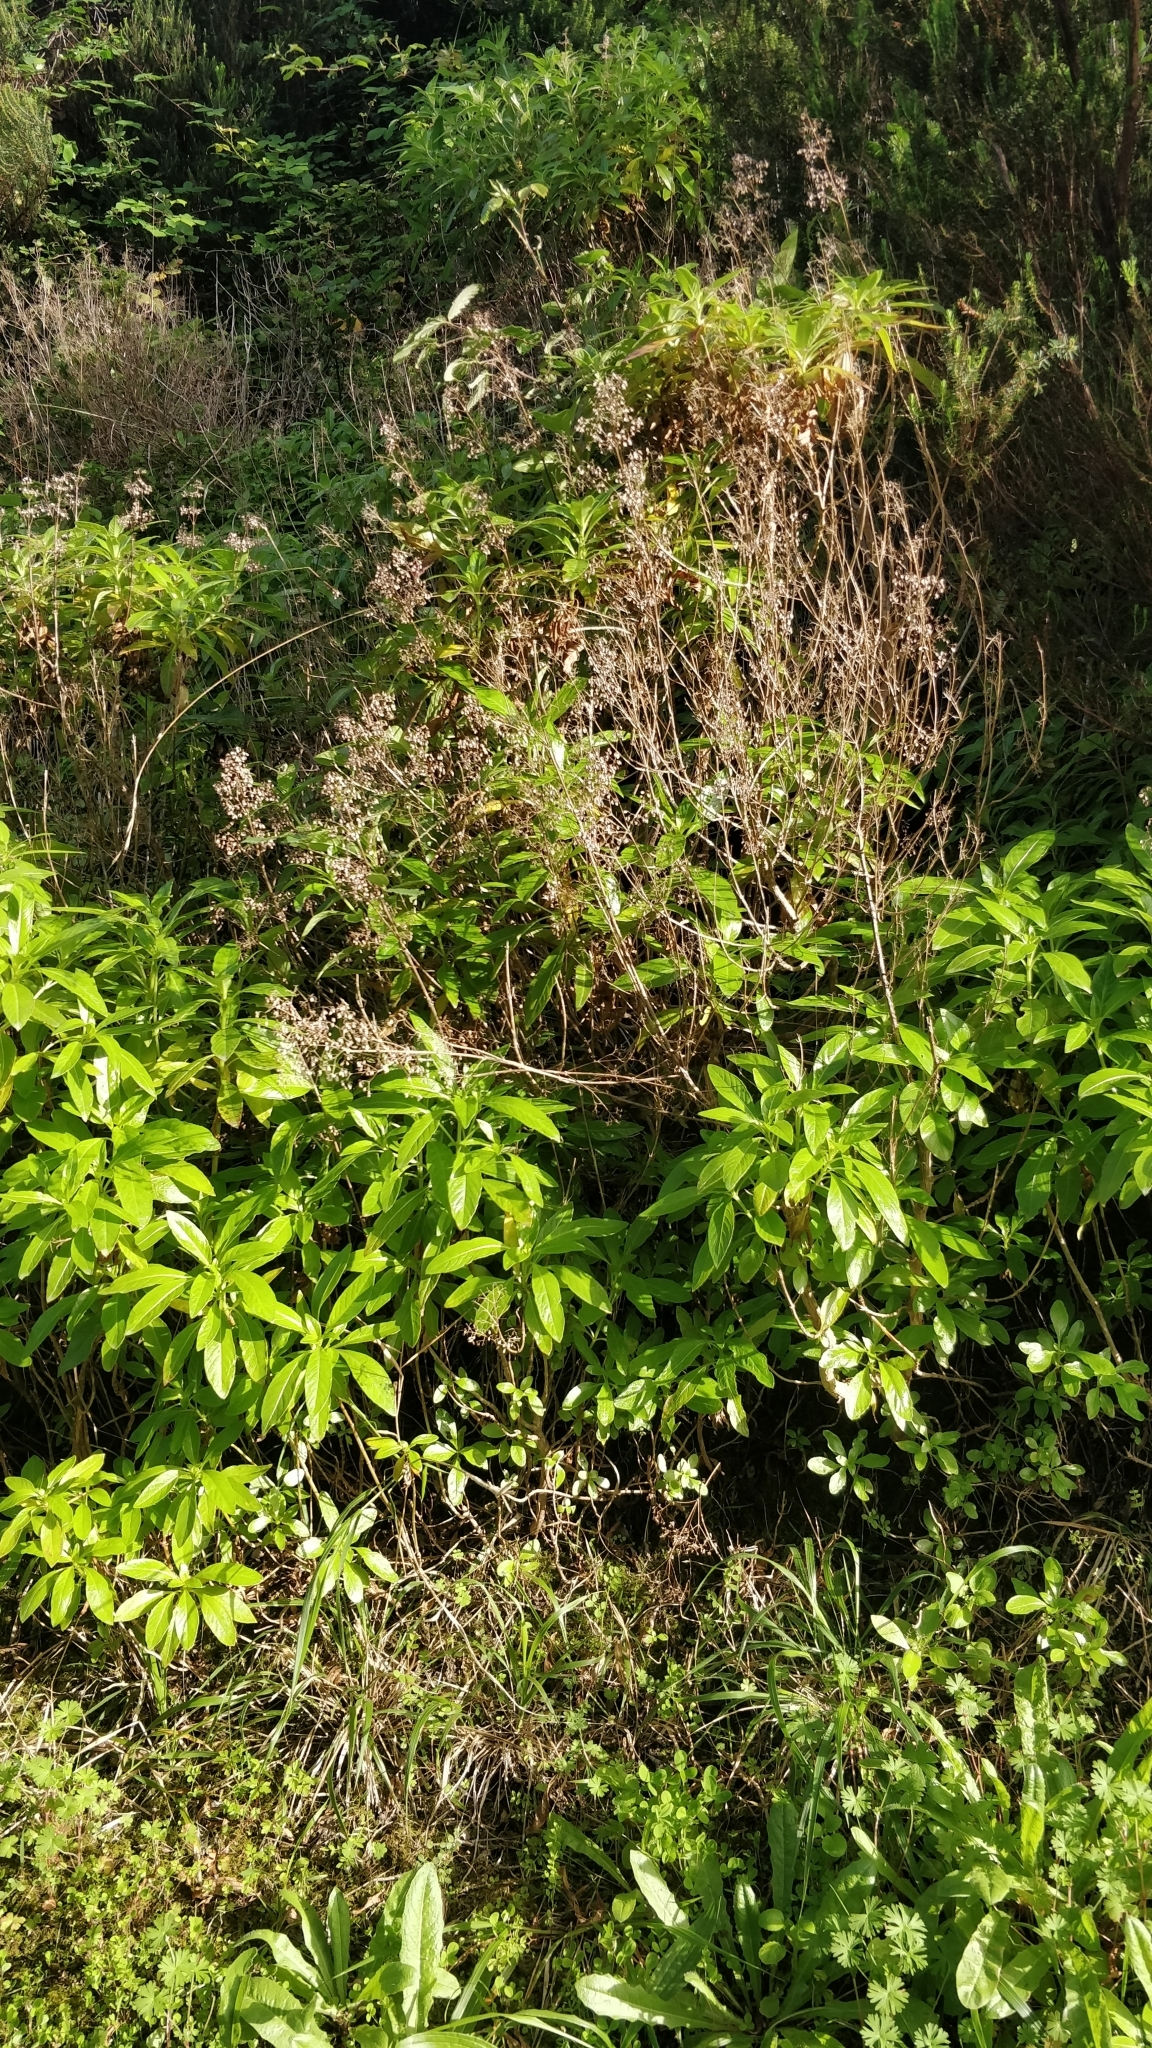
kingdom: Plantae
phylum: Tracheophyta
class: Magnoliopsida
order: Gentianales
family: Rubiaceae
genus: Phyllis
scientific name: Phyllis nobla
